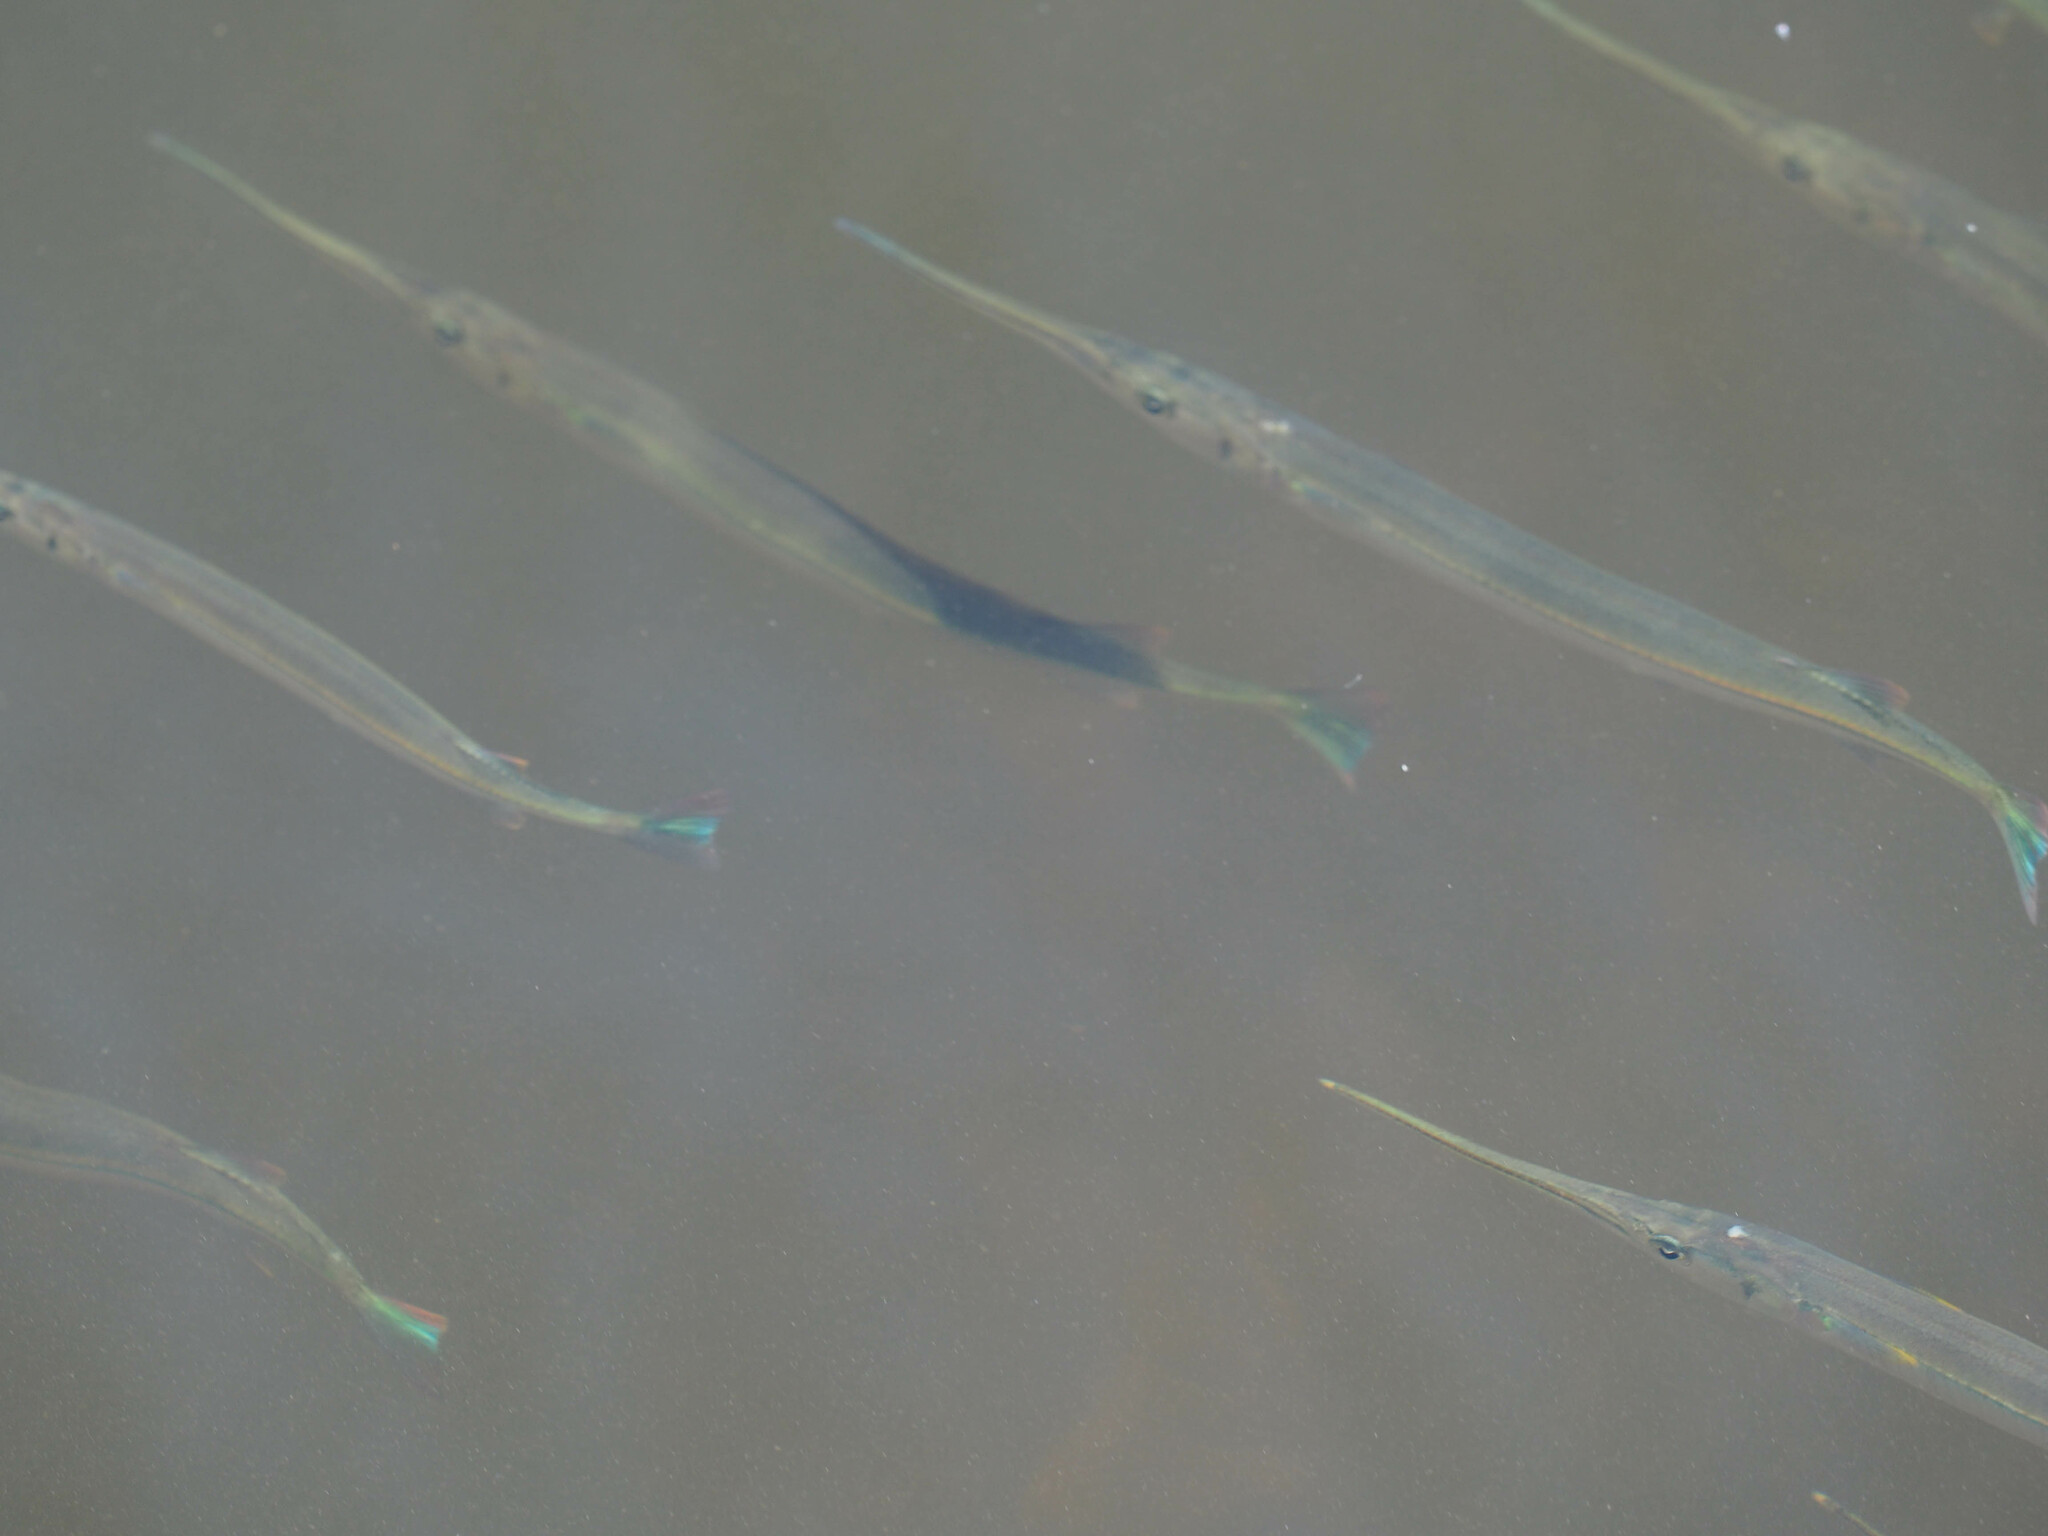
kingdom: Animalia
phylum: Chordata
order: Beloniformes
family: Belonidae
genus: Strongylura
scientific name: Strongylura
